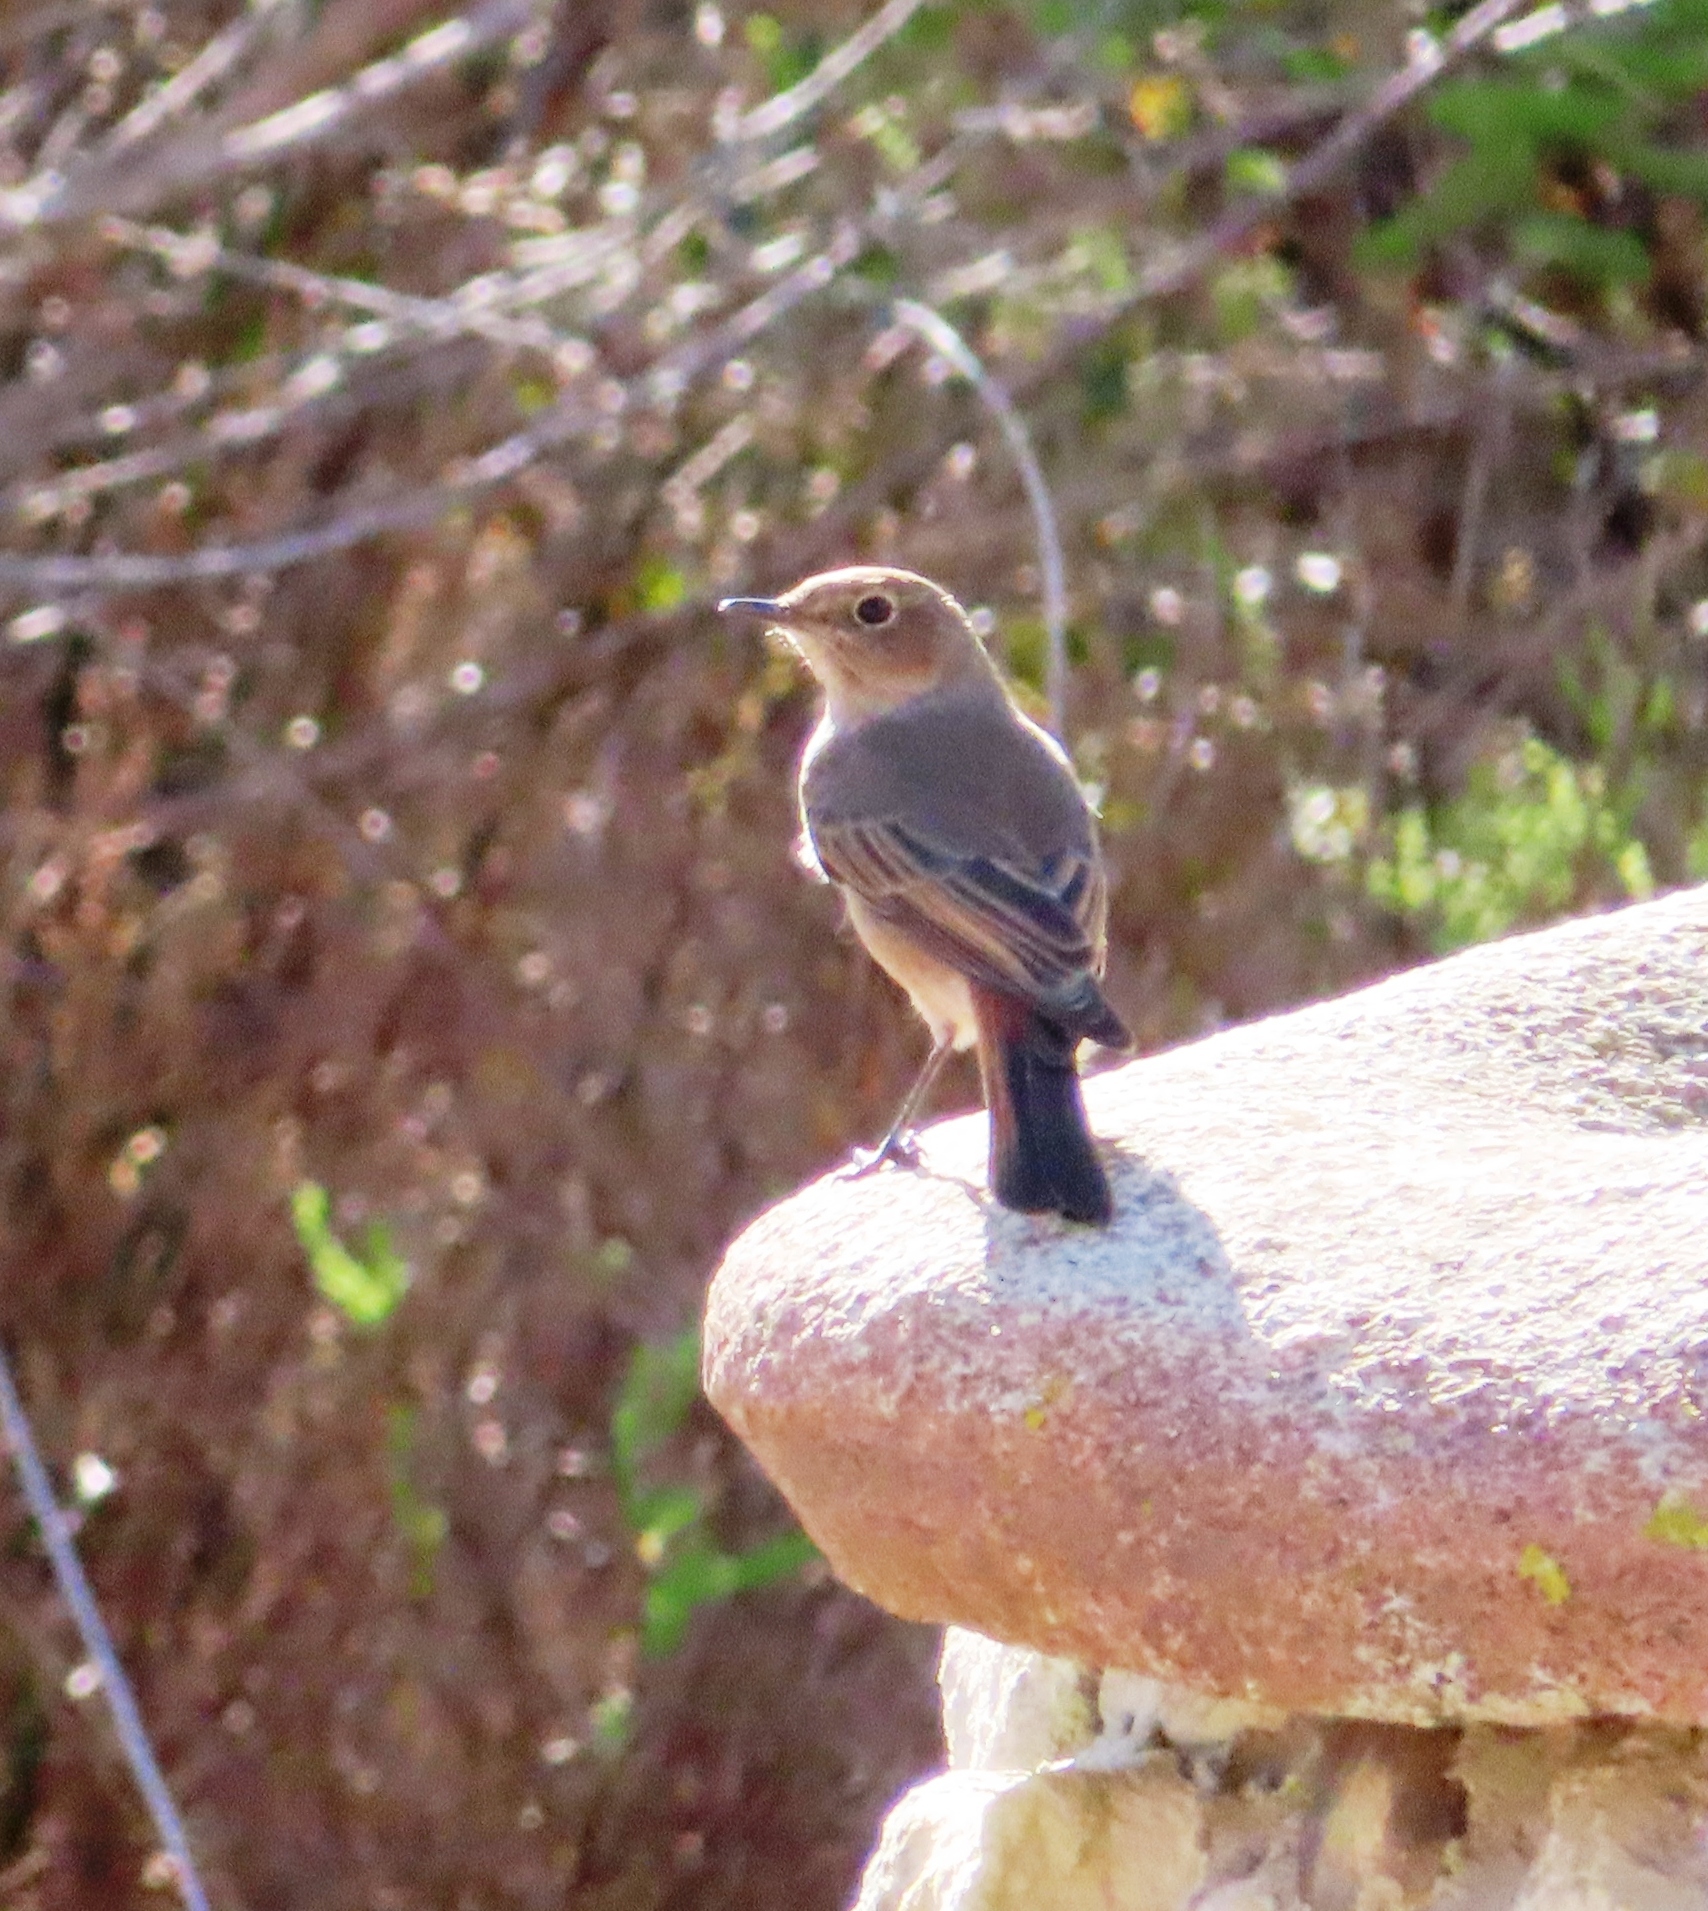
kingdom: Animalia
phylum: Chordata
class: Aves
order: Passeriformes
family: Muscicapidae
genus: Oenanthe
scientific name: Oenanthe familiaris
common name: Familiar chat
